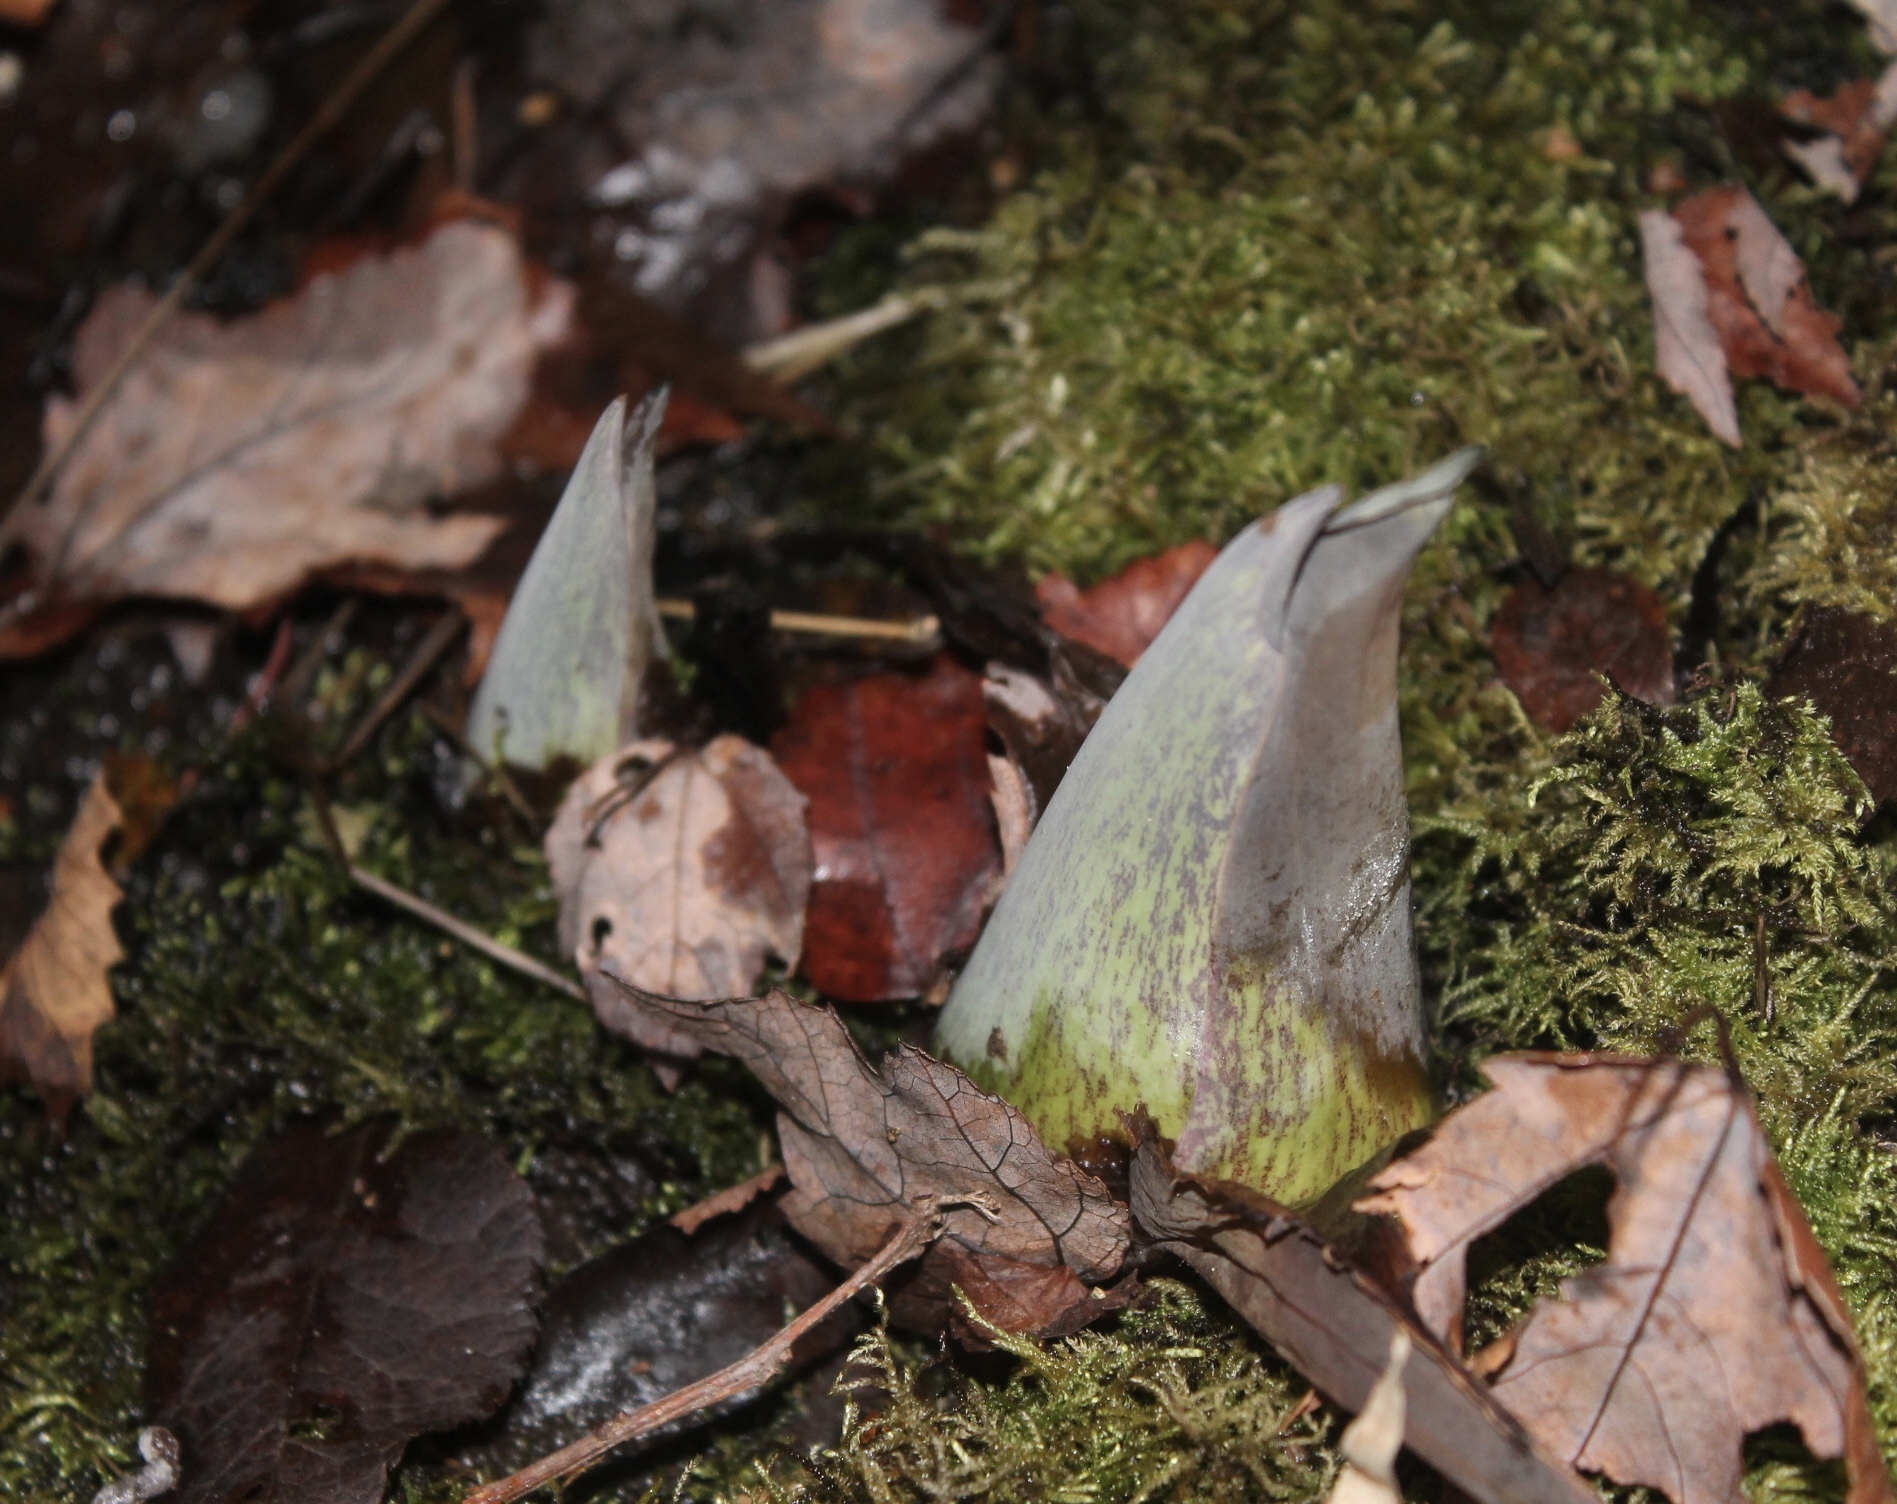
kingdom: Plantae
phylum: Tracheophyta
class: Liliopsida
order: Alismatales
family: Araceae
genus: Symplocarpus
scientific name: Symplocarpus foetidus
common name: Eastern skunk cabbage
